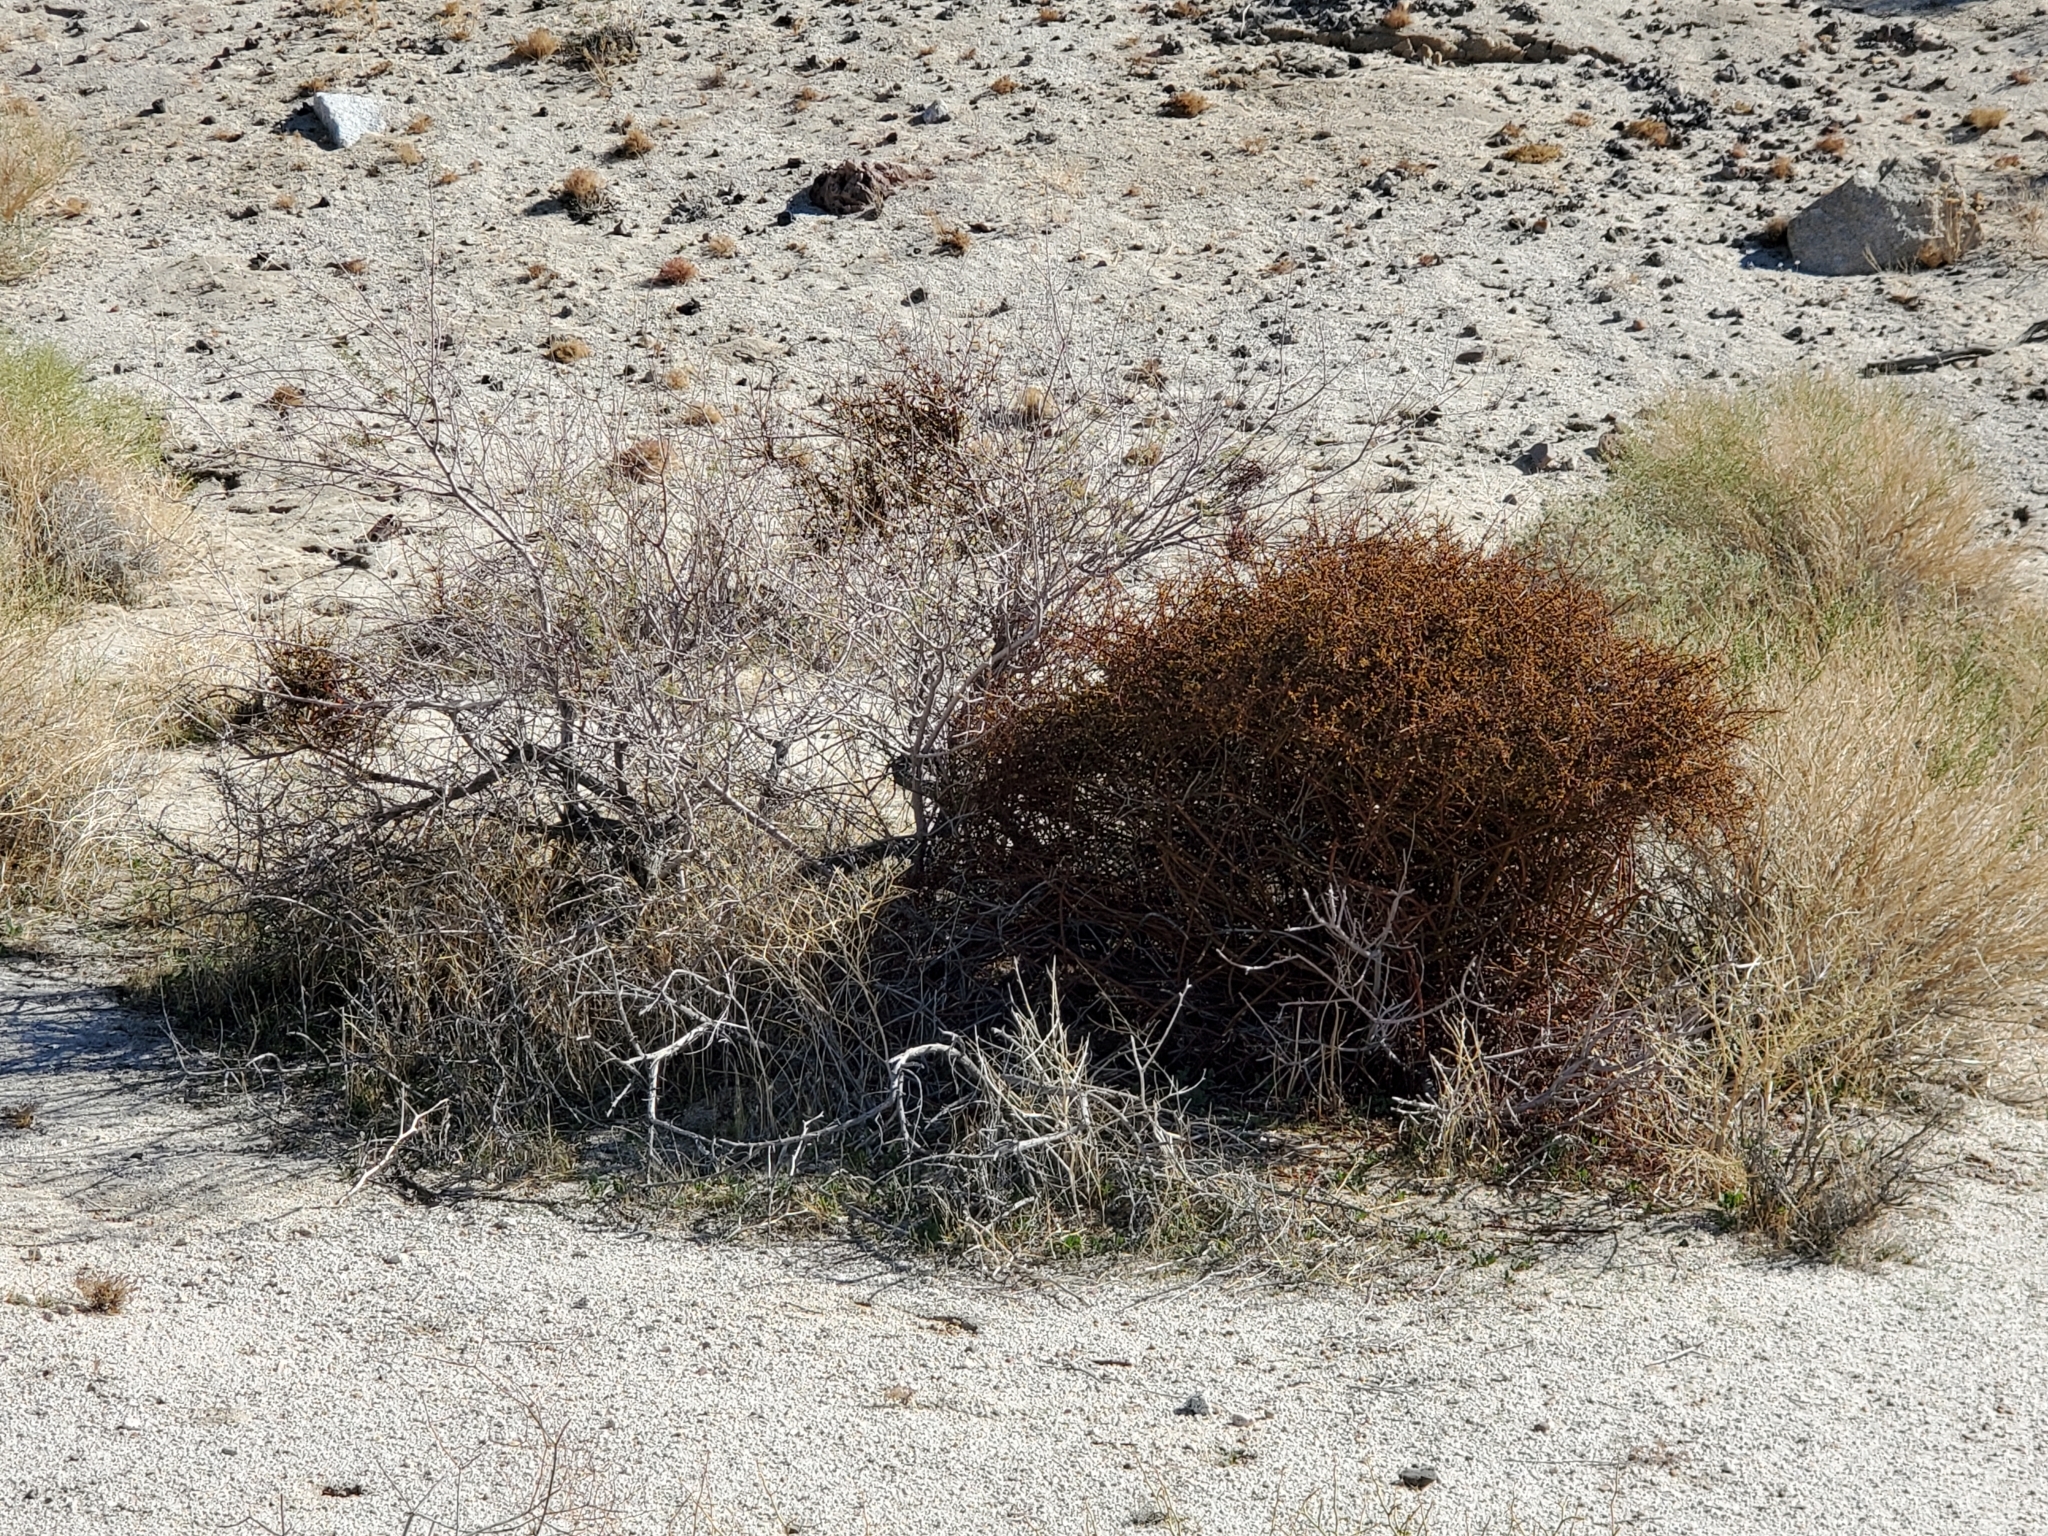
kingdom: Plantae
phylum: Tracheophyta
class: Magnoliopsida
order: Santalales
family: Viscaceae
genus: Phoradendron
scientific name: Phoradendron californicum
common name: Acacia mistletoe
